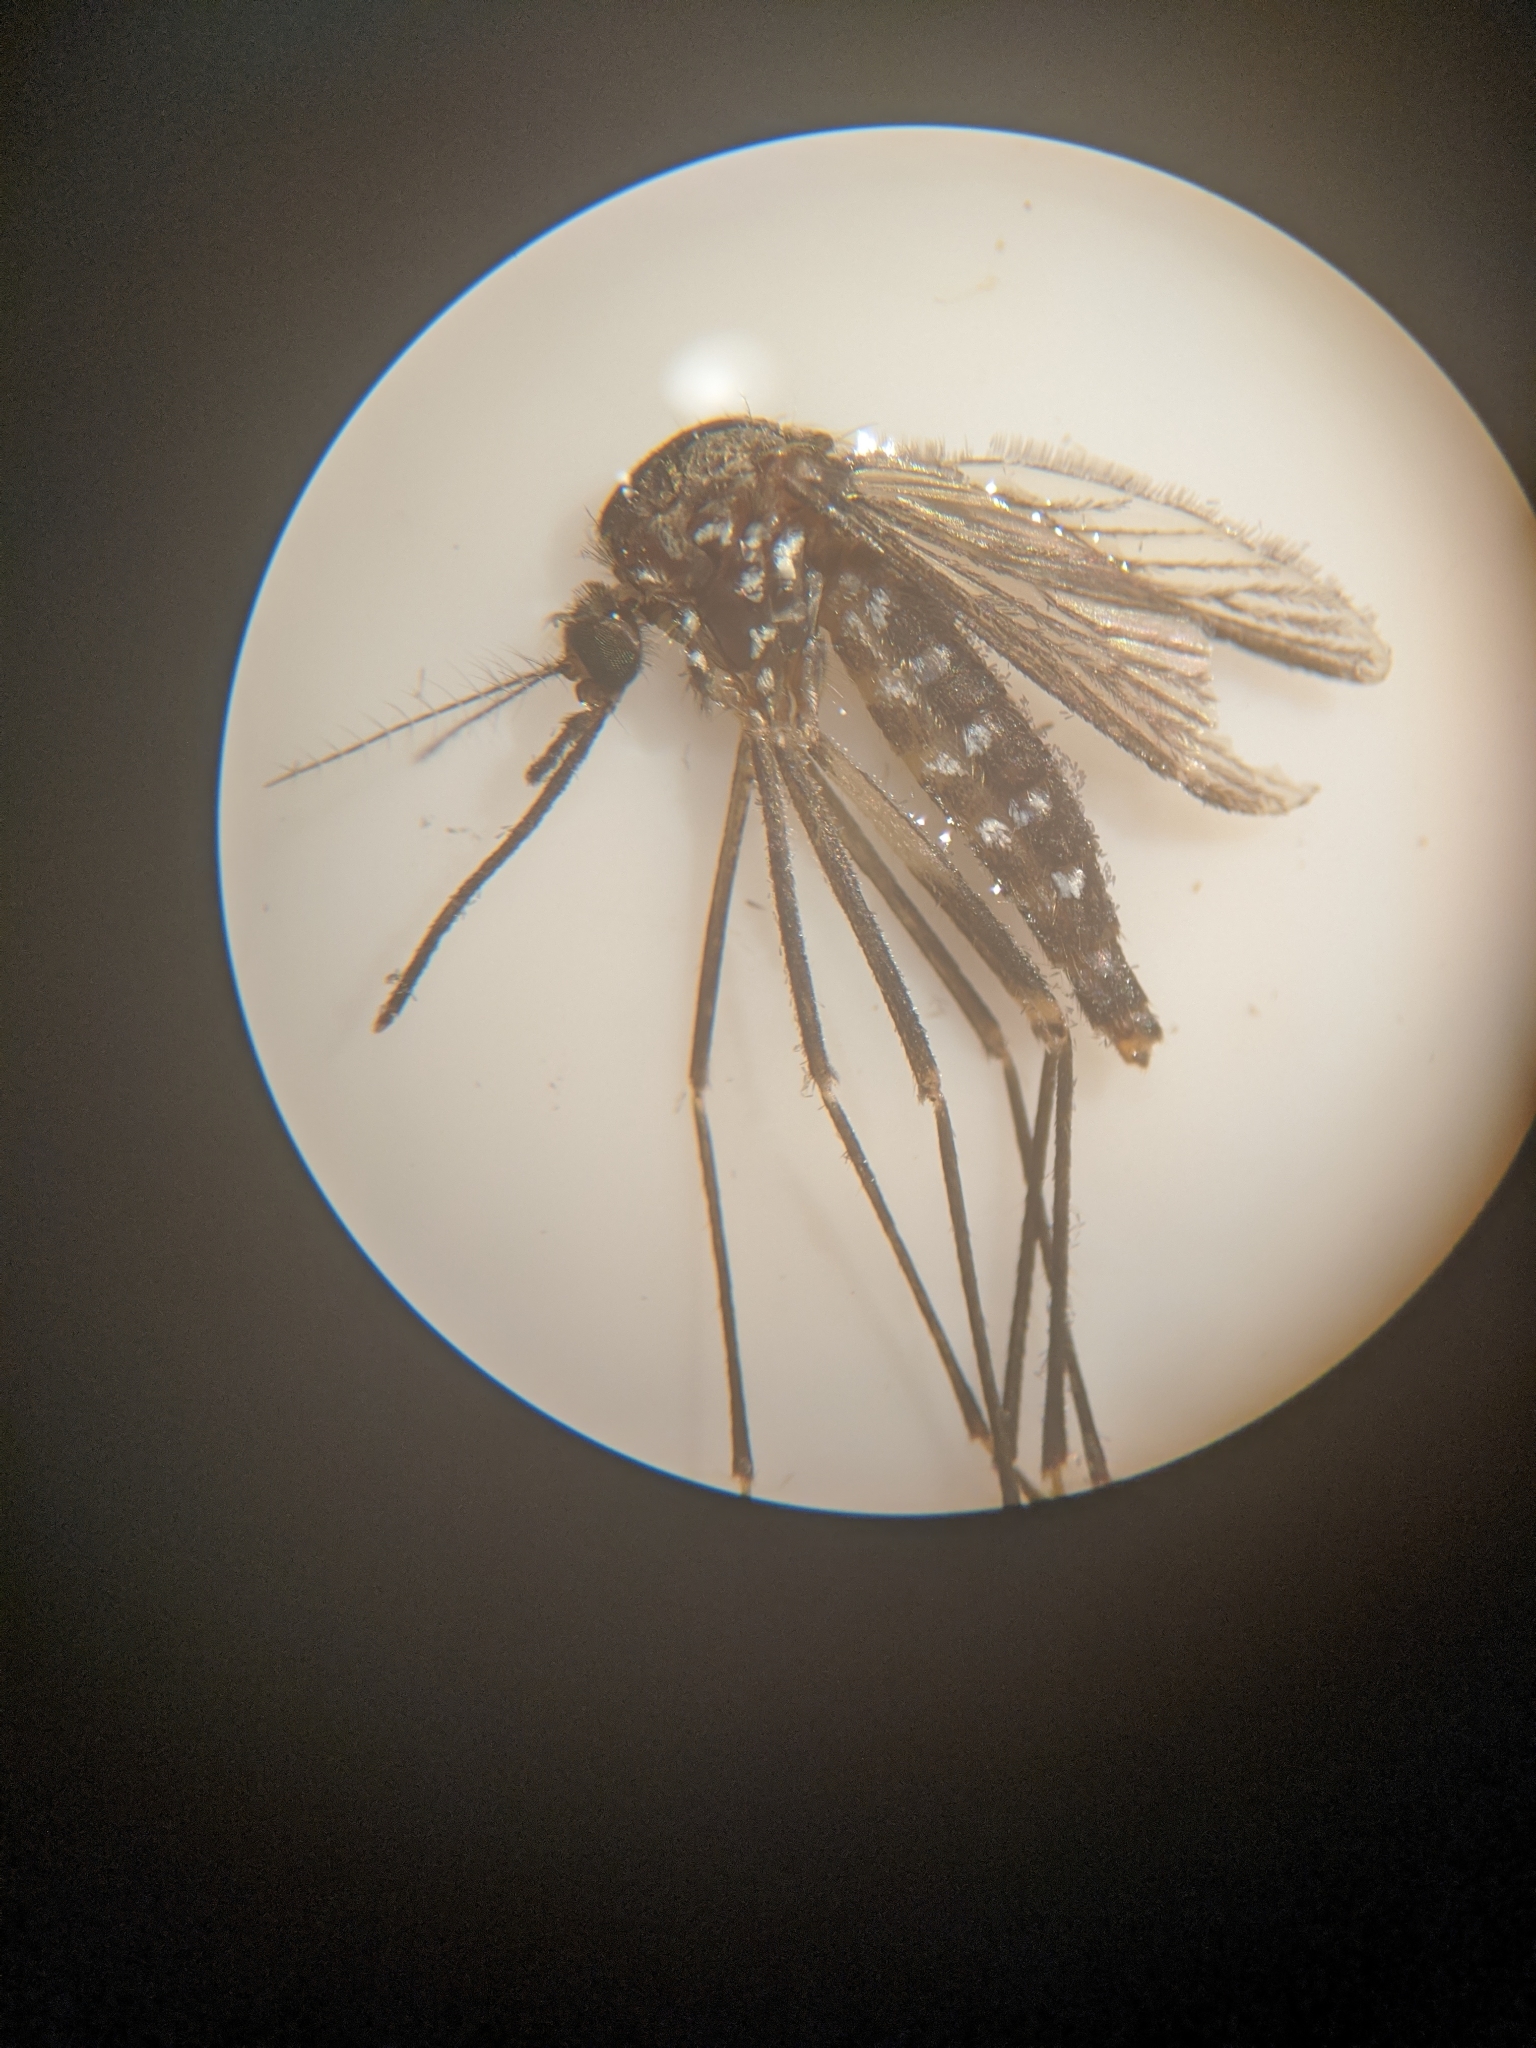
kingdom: Animalia
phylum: Arthropoda
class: Insecta
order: Diptera
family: Culicidae
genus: Aedes
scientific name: Aedes japonicus
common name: Asian bush mosquito
